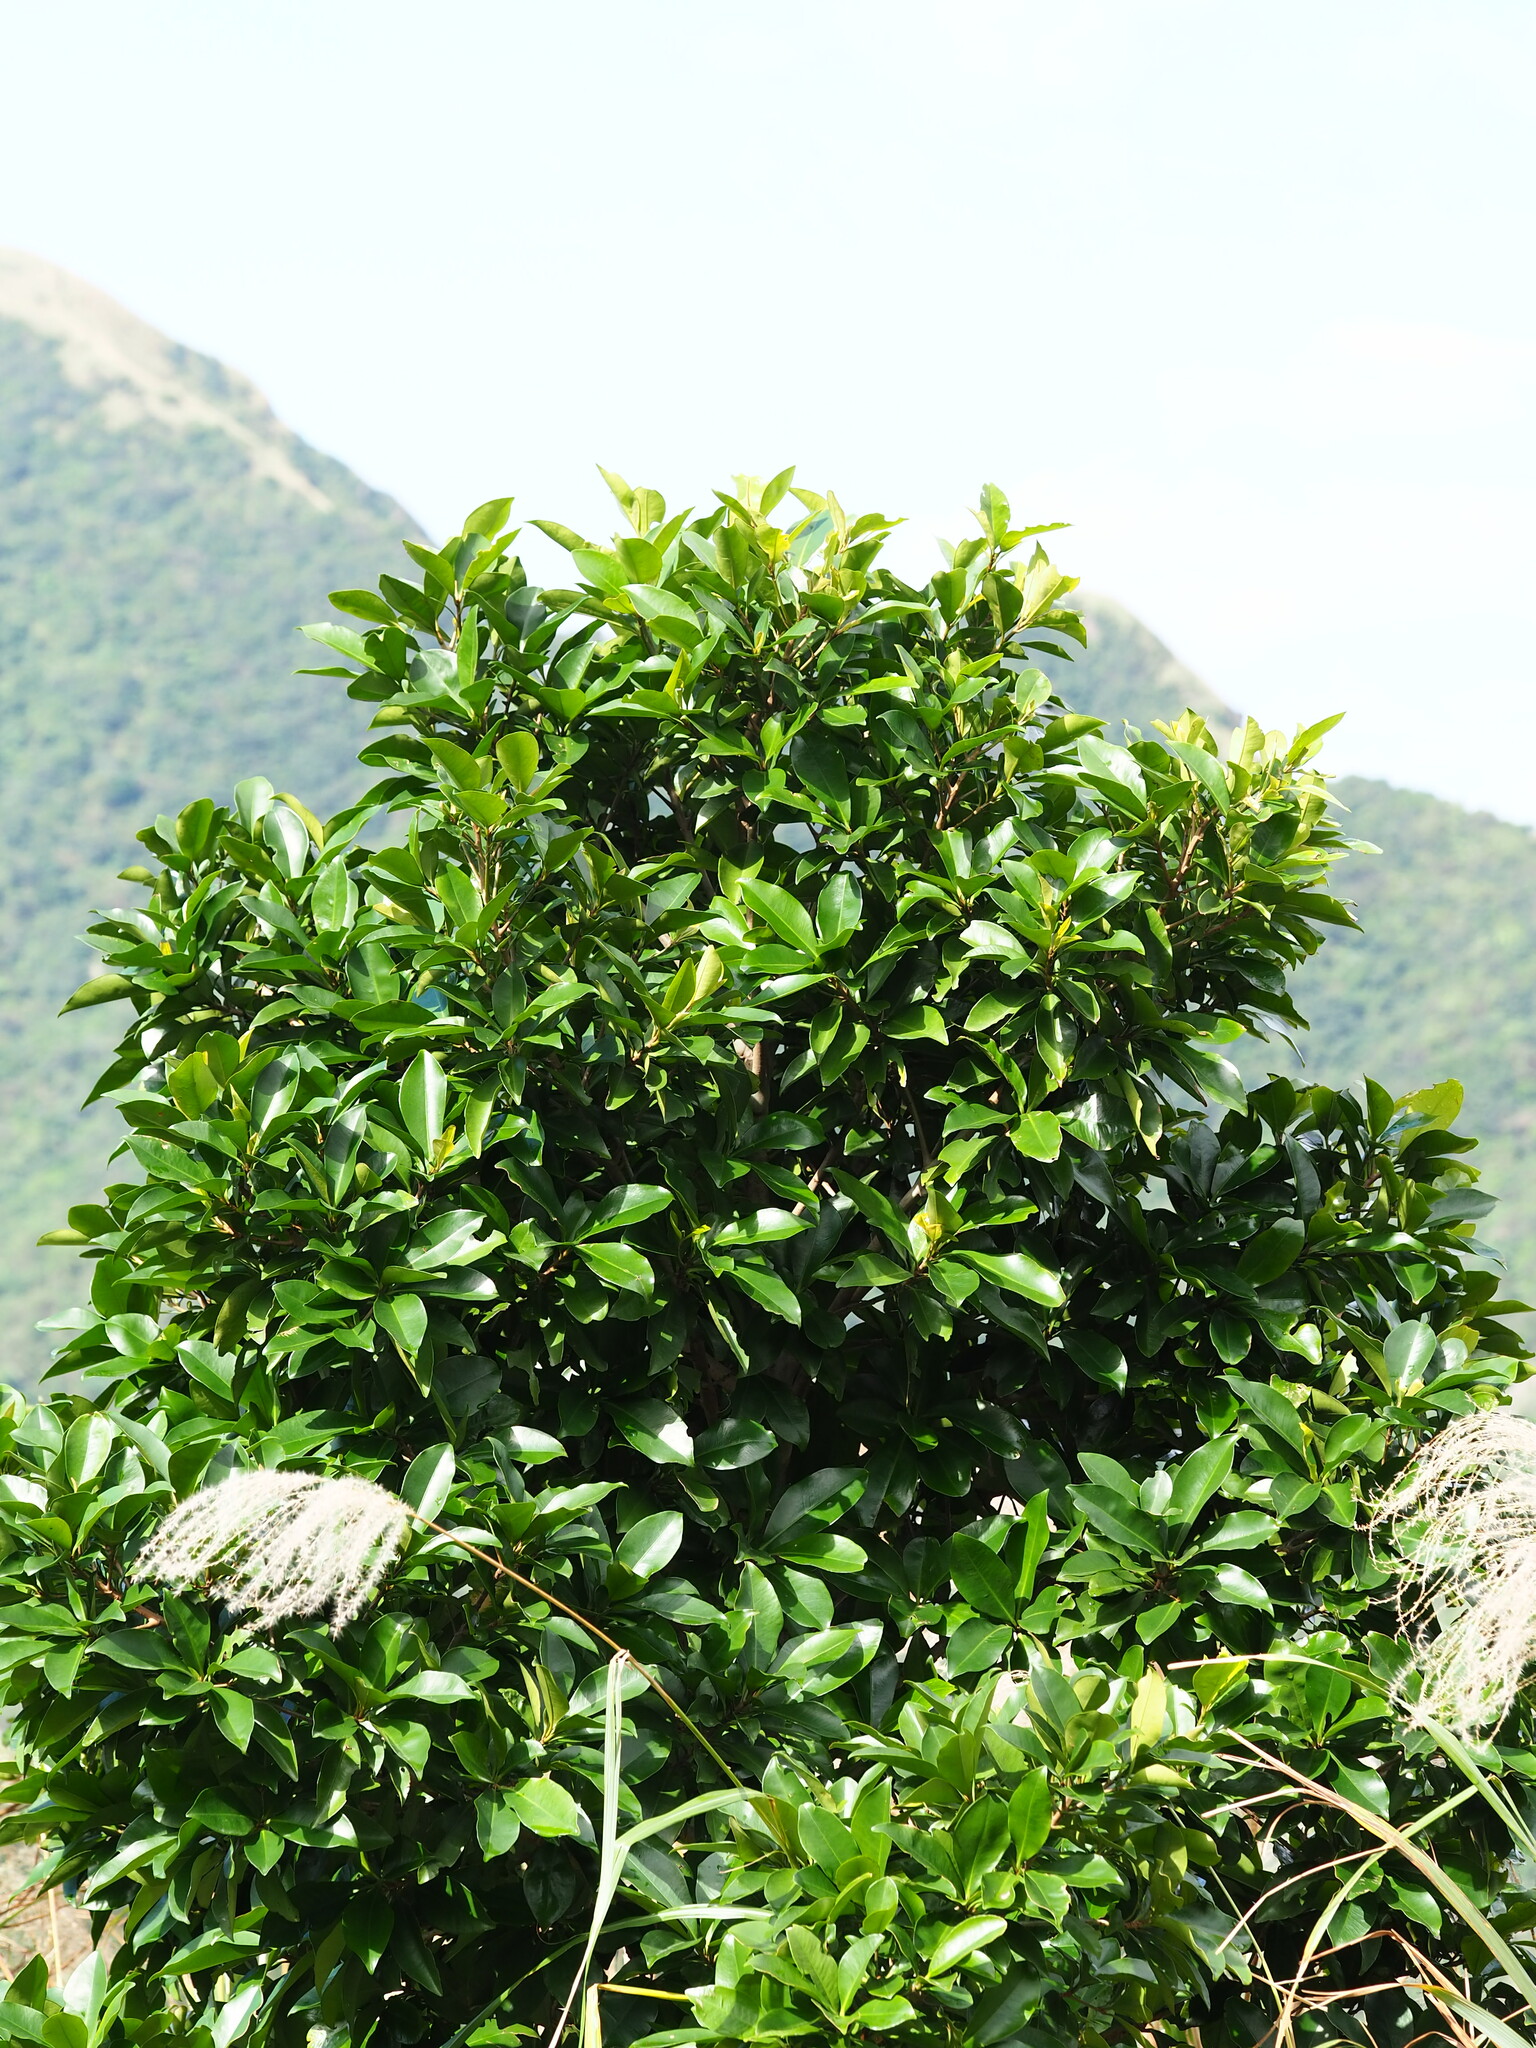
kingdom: Plantae
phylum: Tracheophyta
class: Magnoliopsida
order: Ericales
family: Primulaceae
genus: Ardisia
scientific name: Ardisia sieboldii
